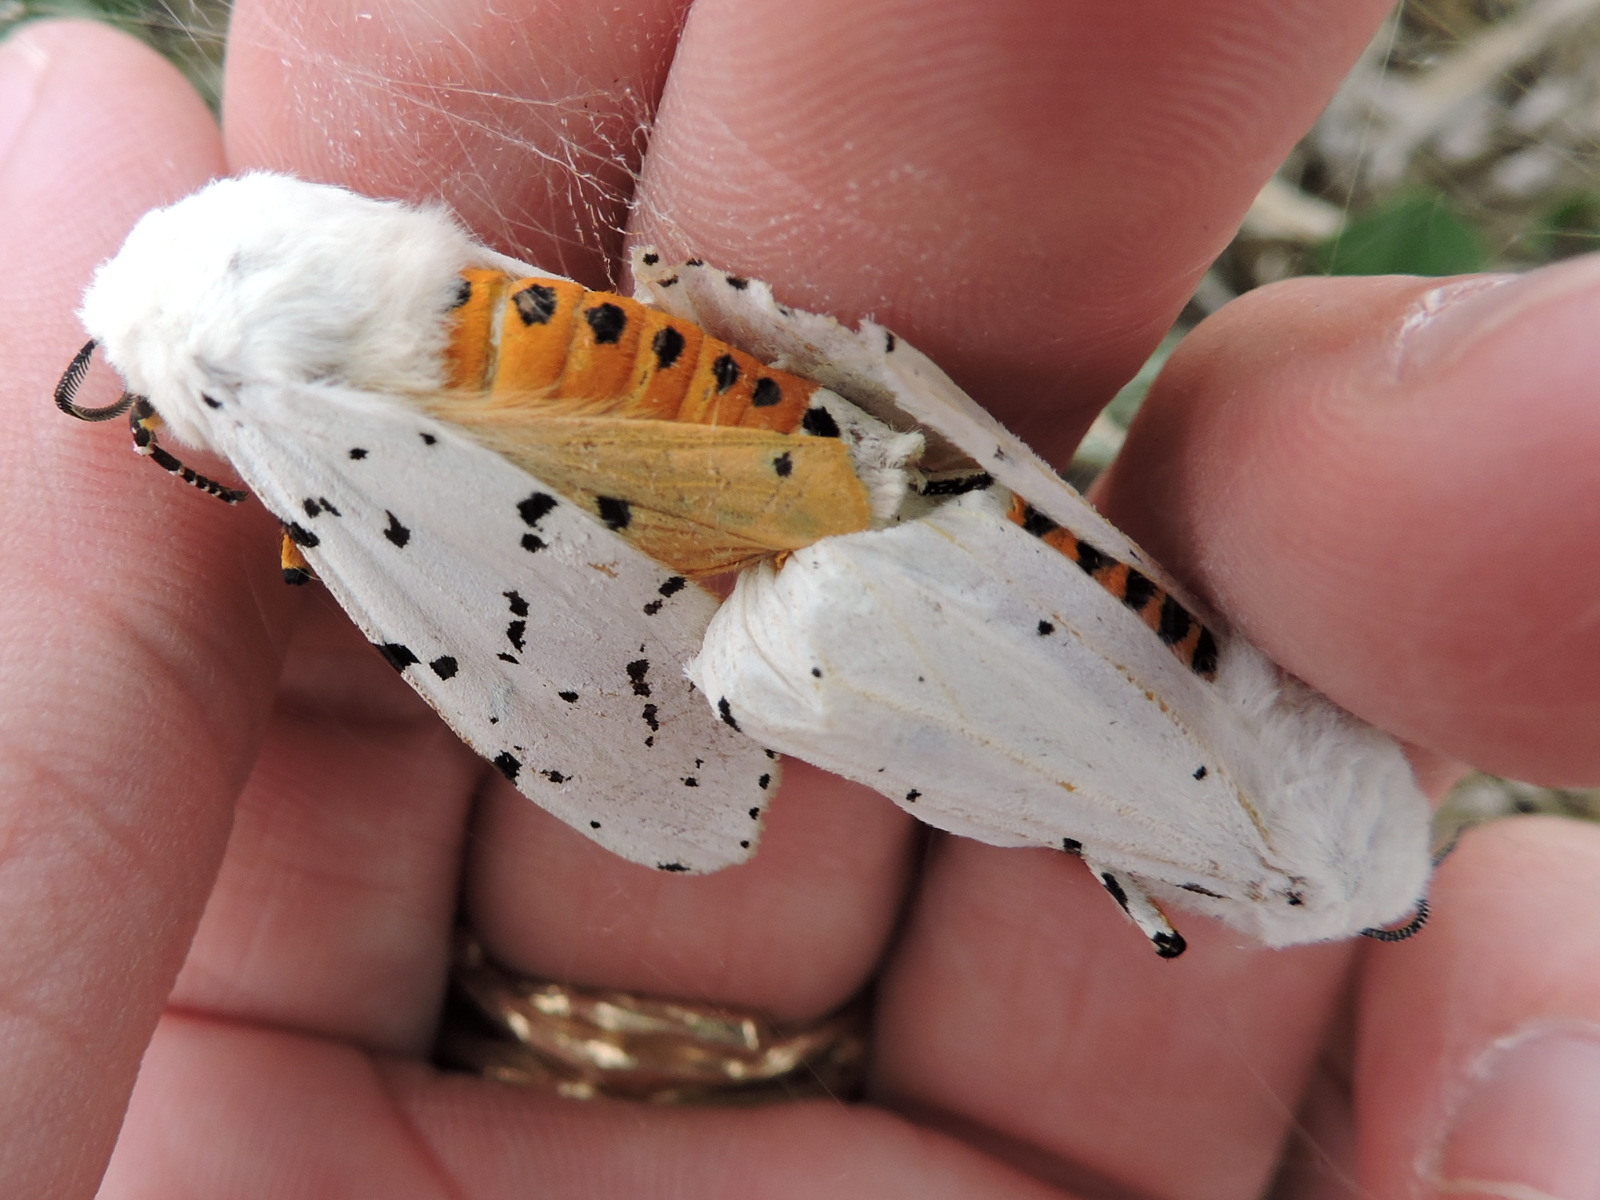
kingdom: Animalia
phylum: Arthropoda
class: Insecta
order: Lepidoptera
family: Erebidae
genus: Estigmene
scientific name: Estigmene acrea
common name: Salt marsh moth
